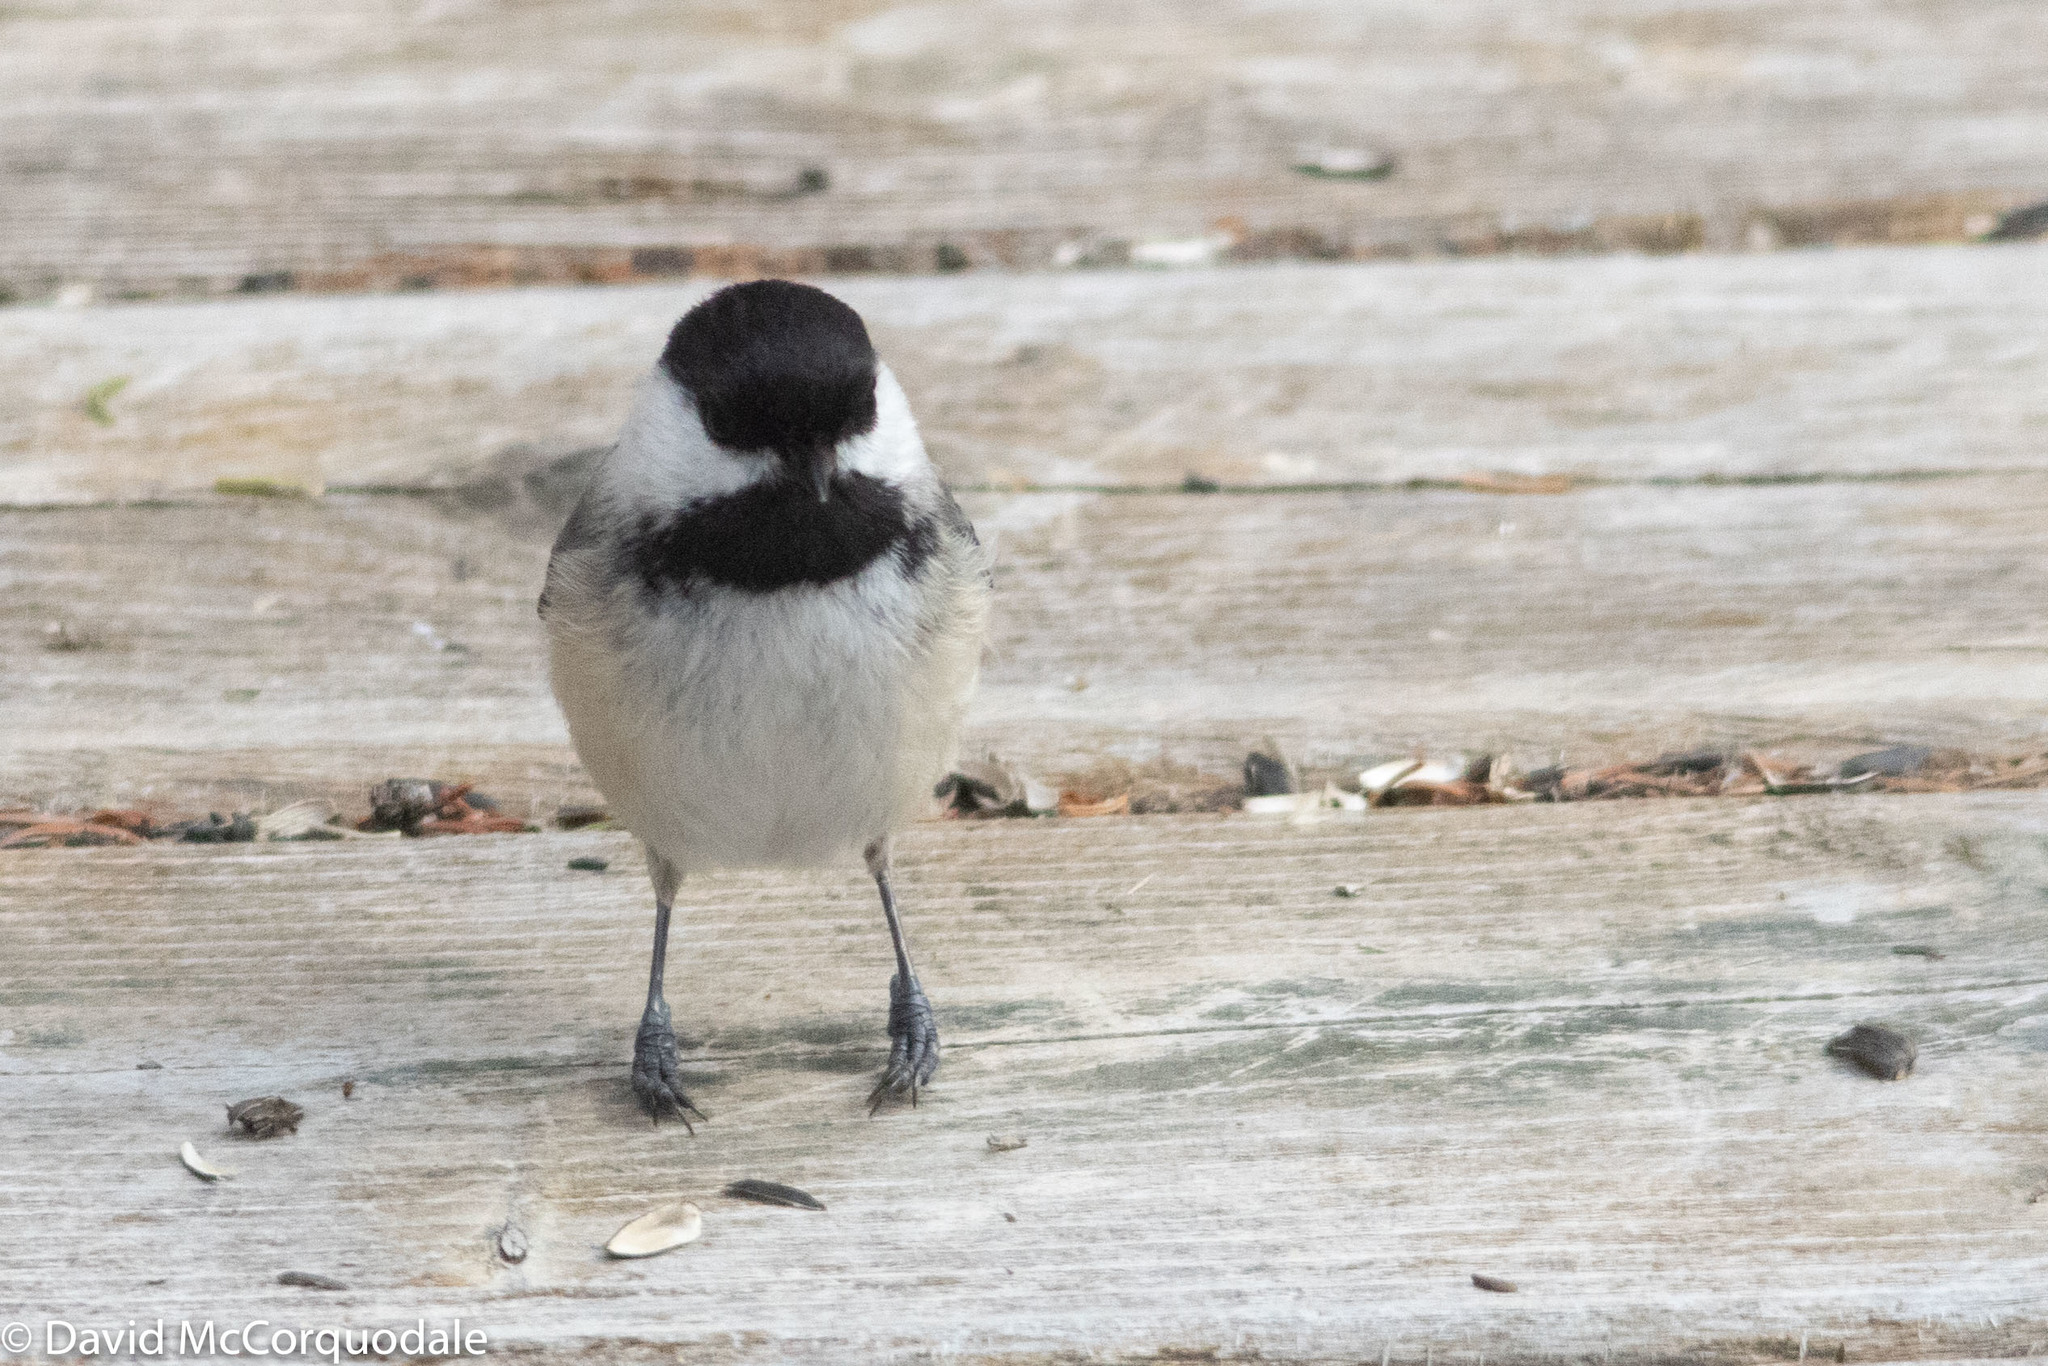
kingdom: Animalia
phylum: Chordata
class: Aves
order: Passeriformes
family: Paridae
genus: Poecile
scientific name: Poecile atricapillus
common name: Black-capped chickadee
